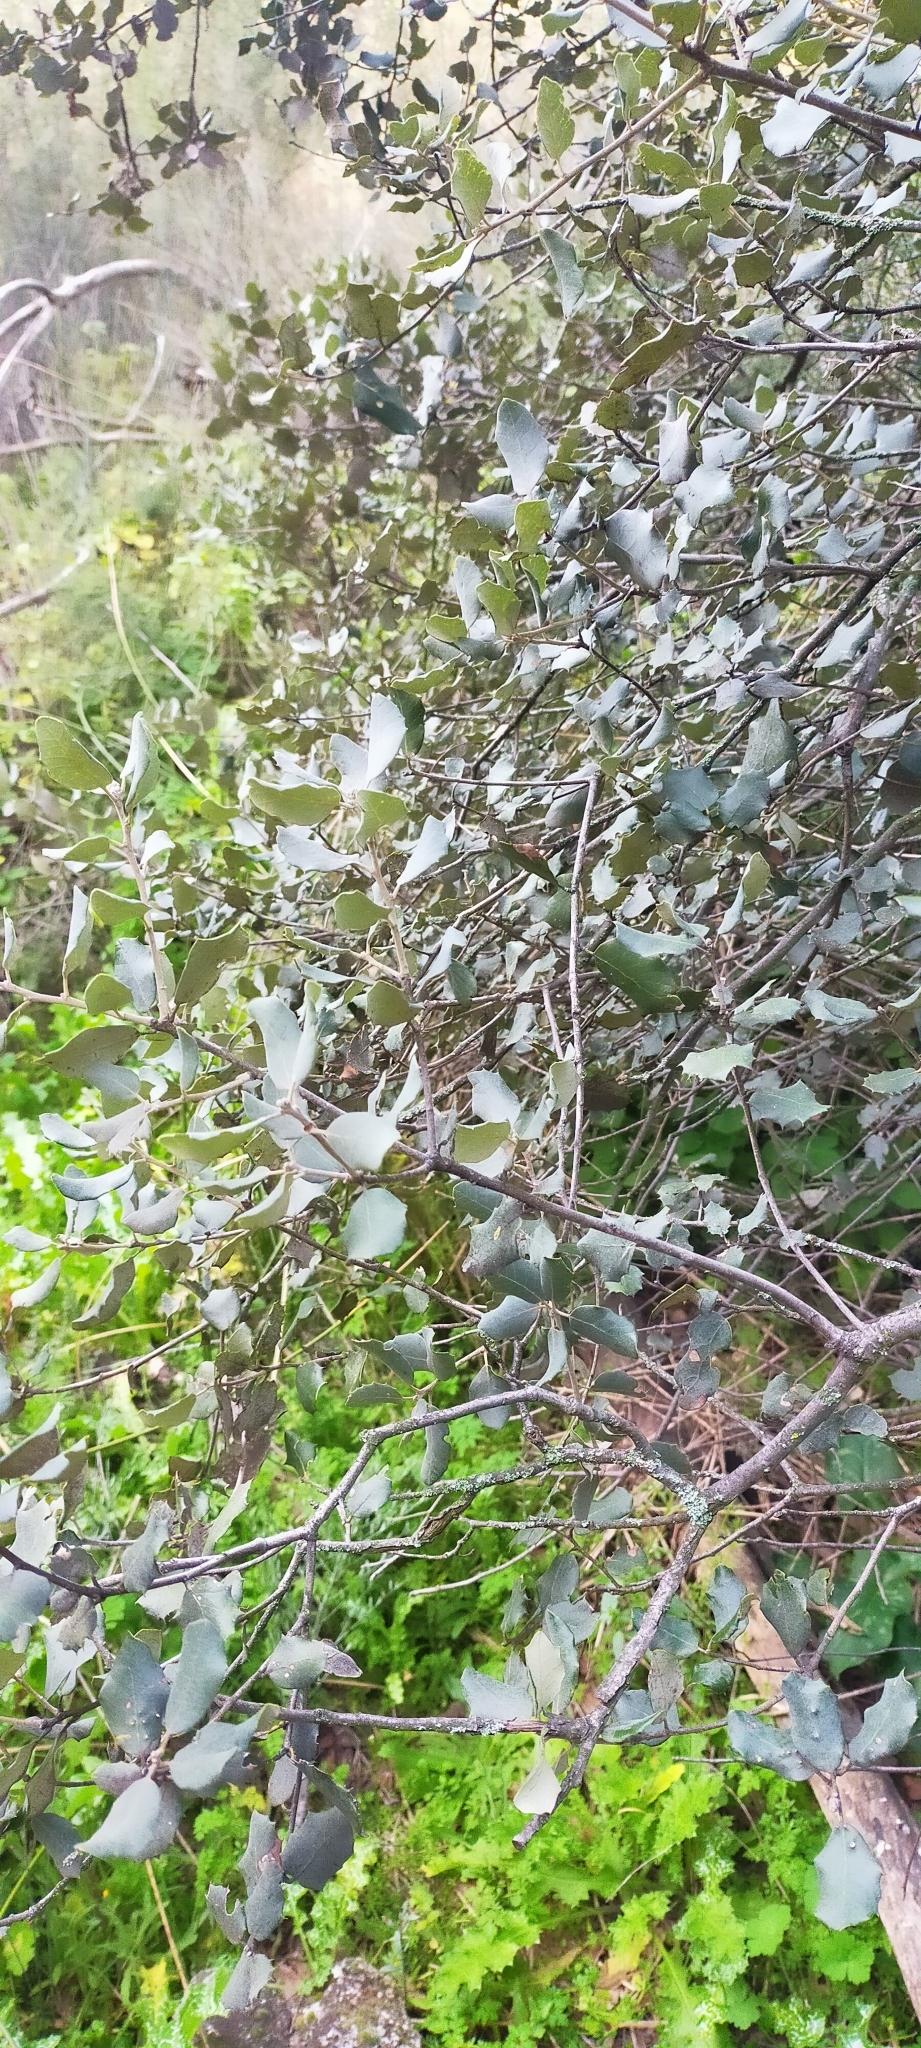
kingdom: Plantae
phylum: Tracheophyta
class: Magnoliopsida
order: Fagales
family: Fagaceae
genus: Quercus
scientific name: Quercus rotundifolia
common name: Holm oak
